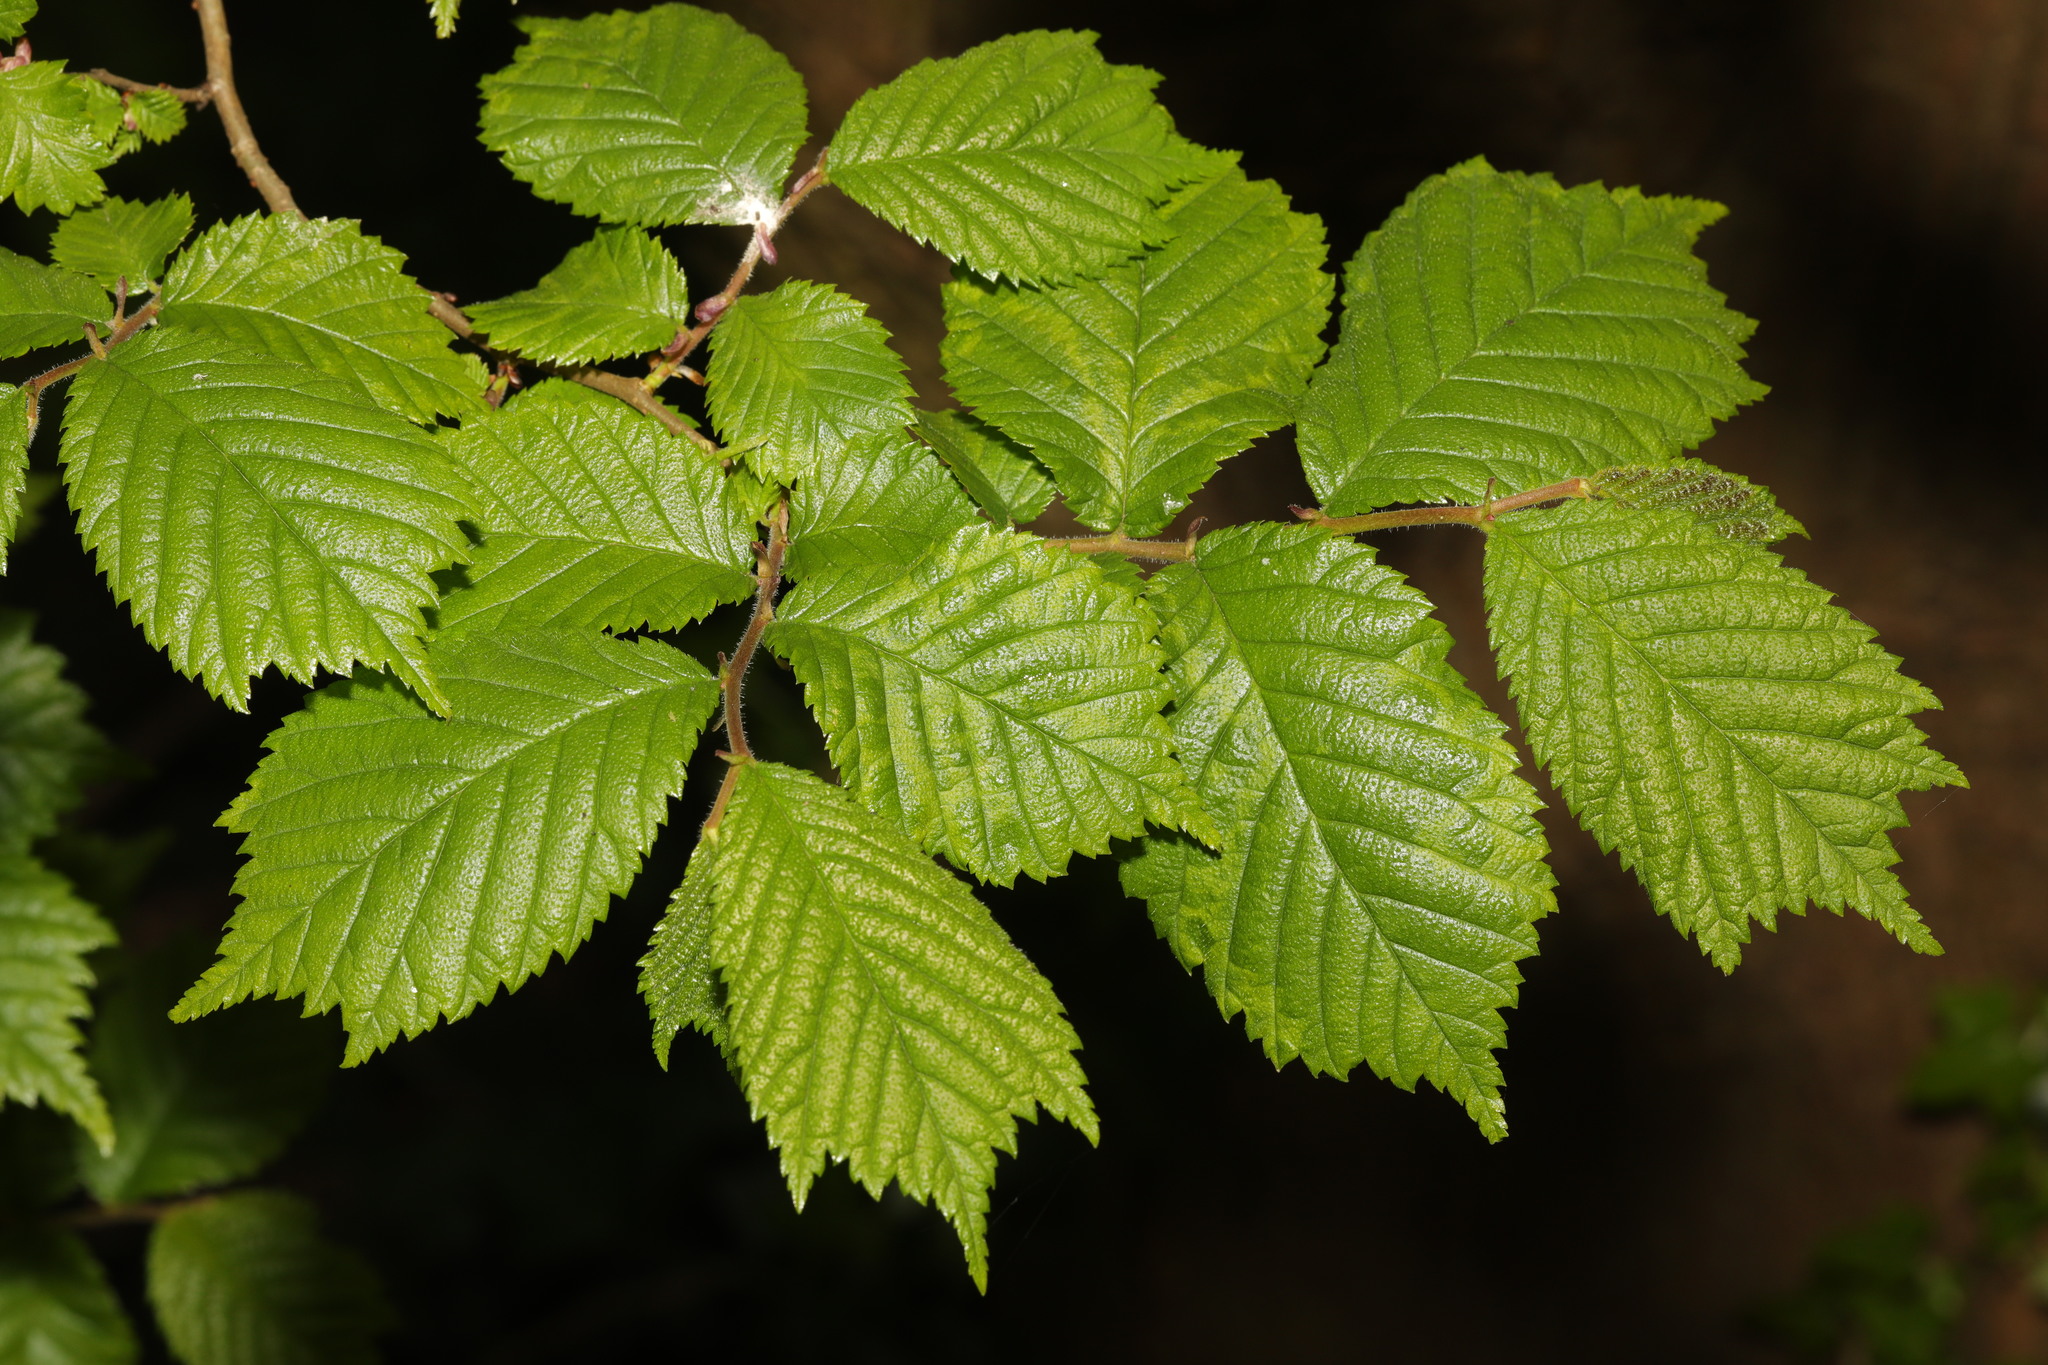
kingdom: Plantae
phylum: Tracheophyta
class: Magnoliopsida
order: Rosales
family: Ulmaceae
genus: Ulmus
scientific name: Ulmus glabra
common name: Wych elm
